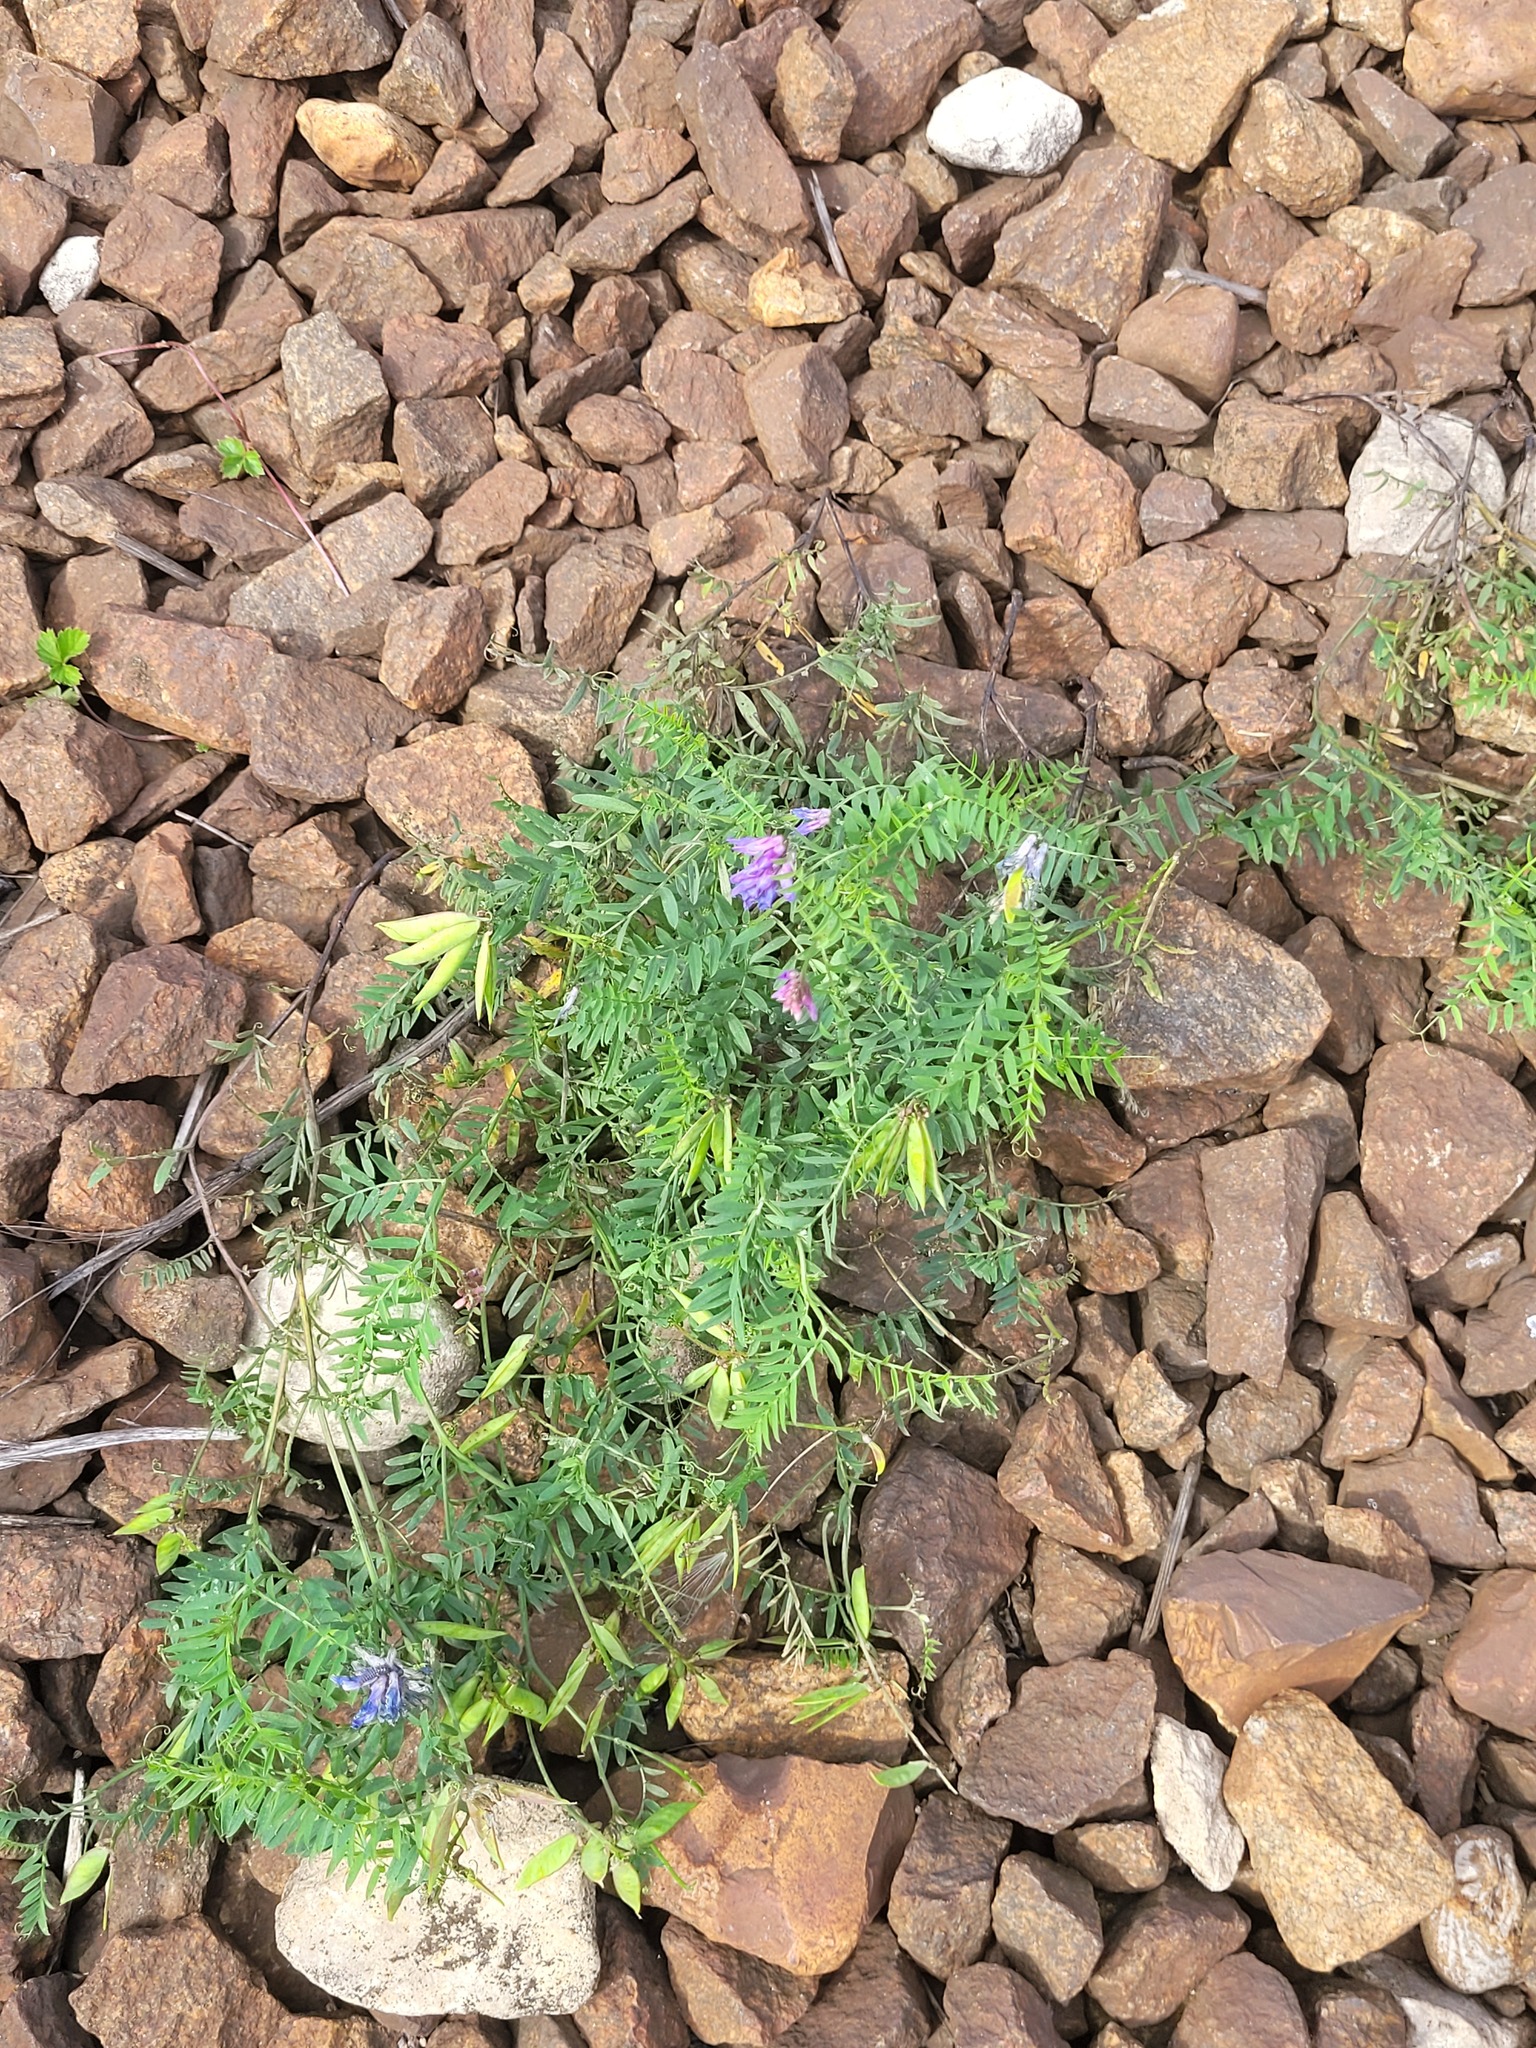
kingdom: Plantae
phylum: Tracheophyta
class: Magnoliopsida
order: Fabales
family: Fabaceae
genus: Vicia
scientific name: Vicia cracca
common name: Bird vetch
